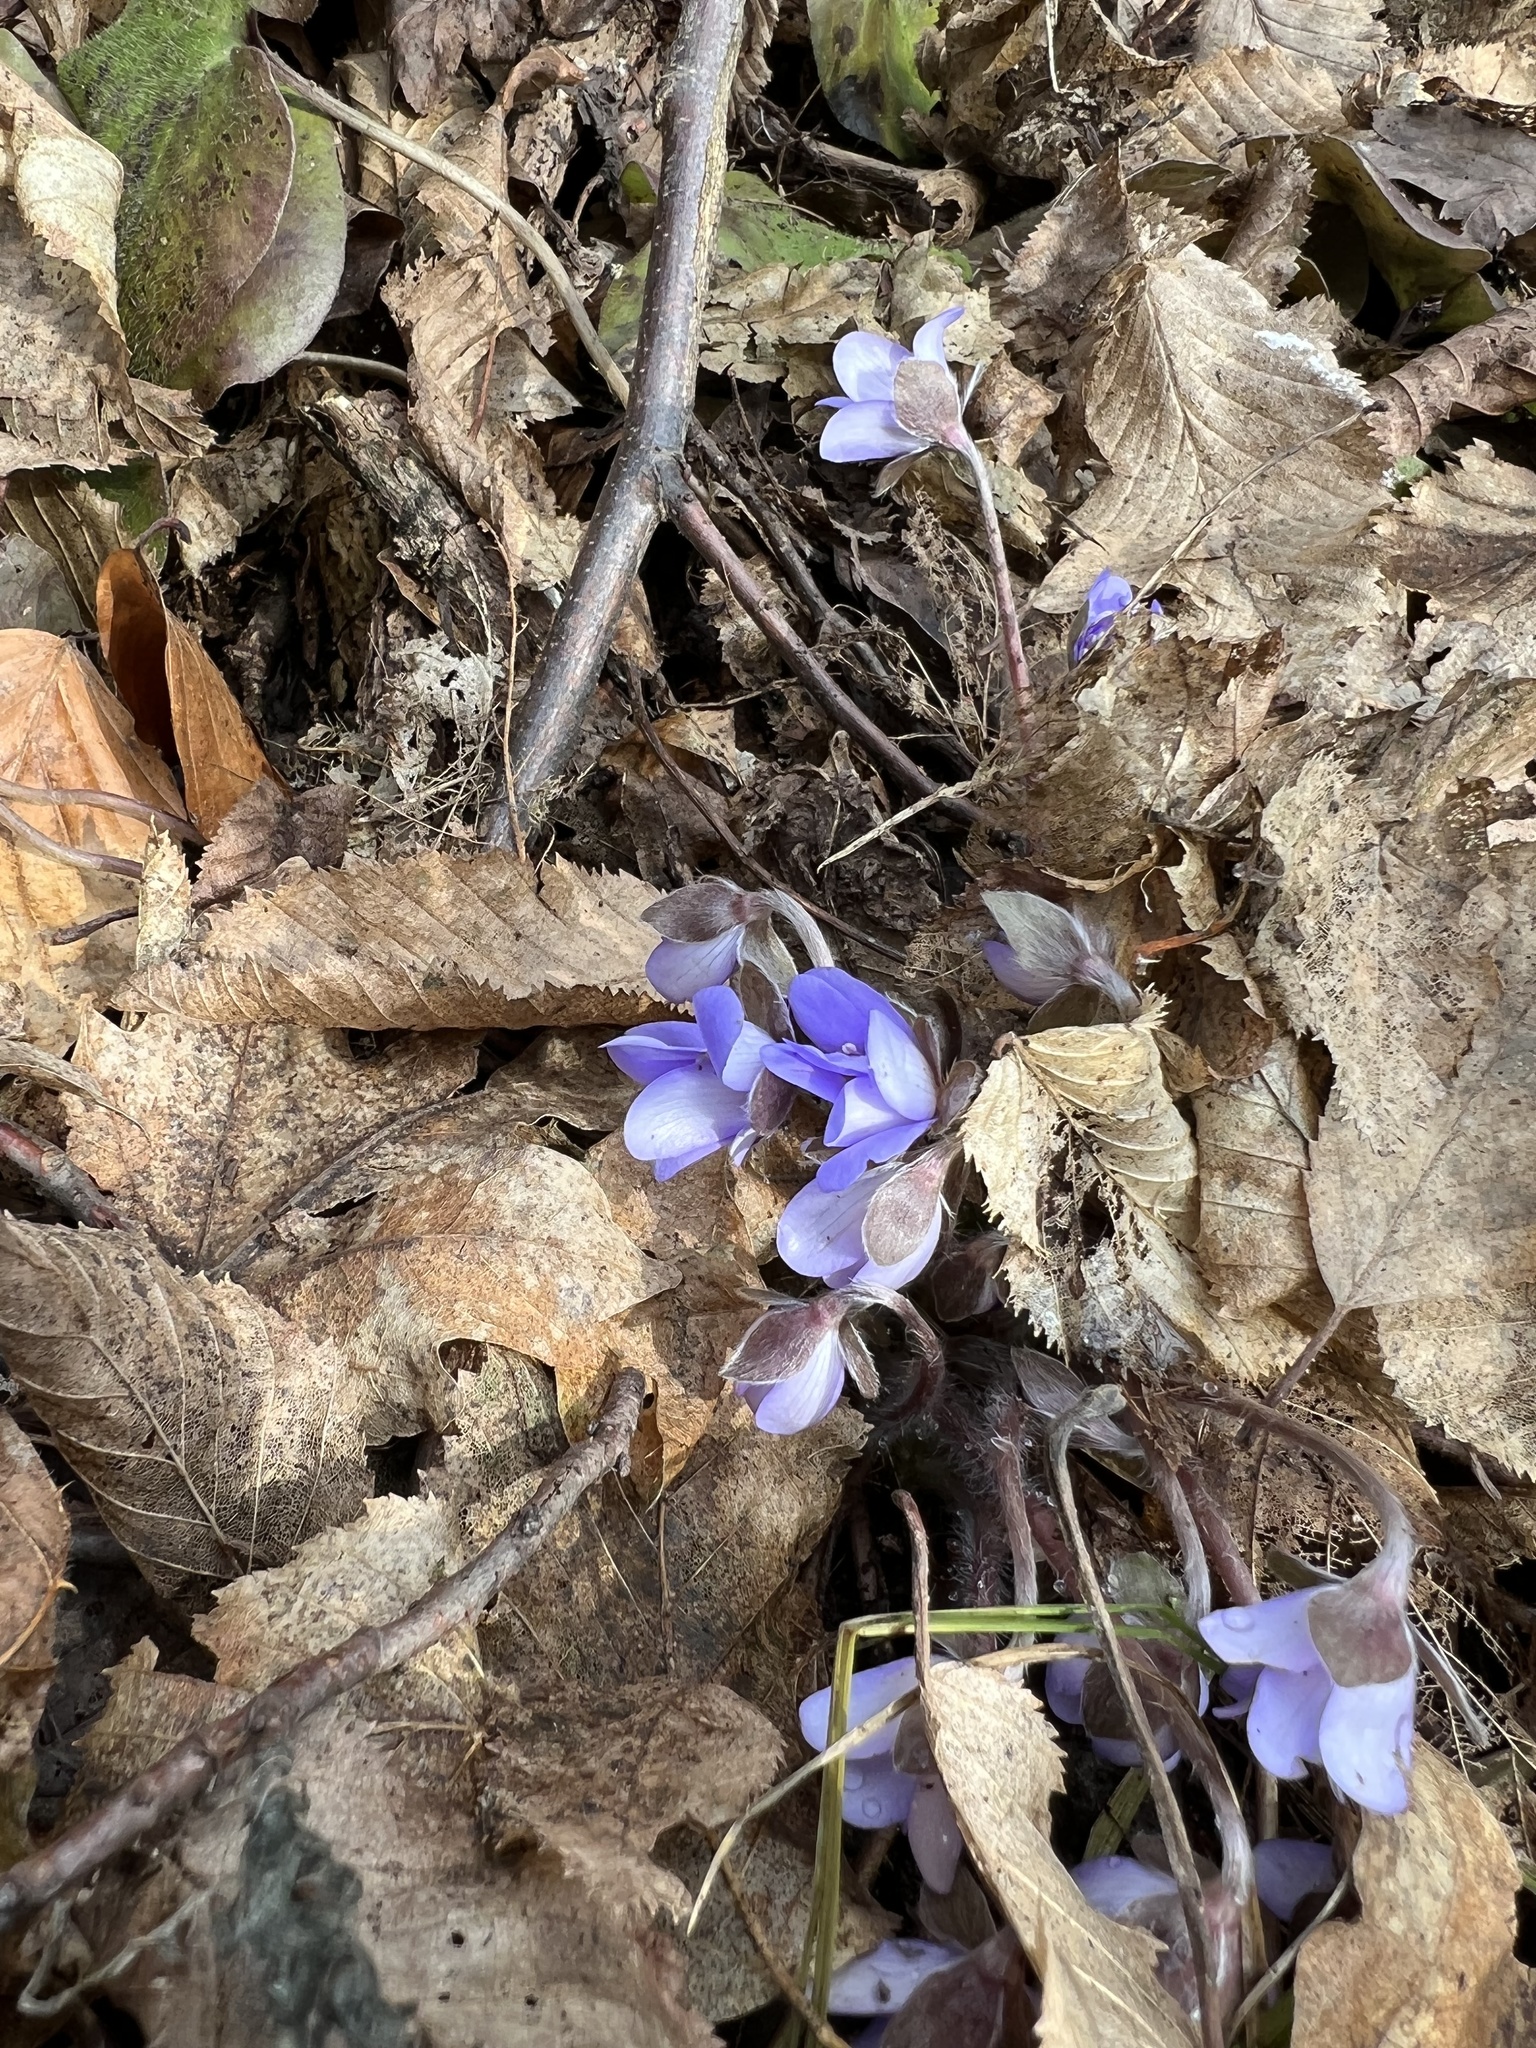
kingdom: Plantae
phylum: Tracheophyta
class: Magnoliopsida
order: Ranunculales
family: Ranunculaceae
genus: Hepatica
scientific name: Hepatica nobilis
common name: Liverleaf
